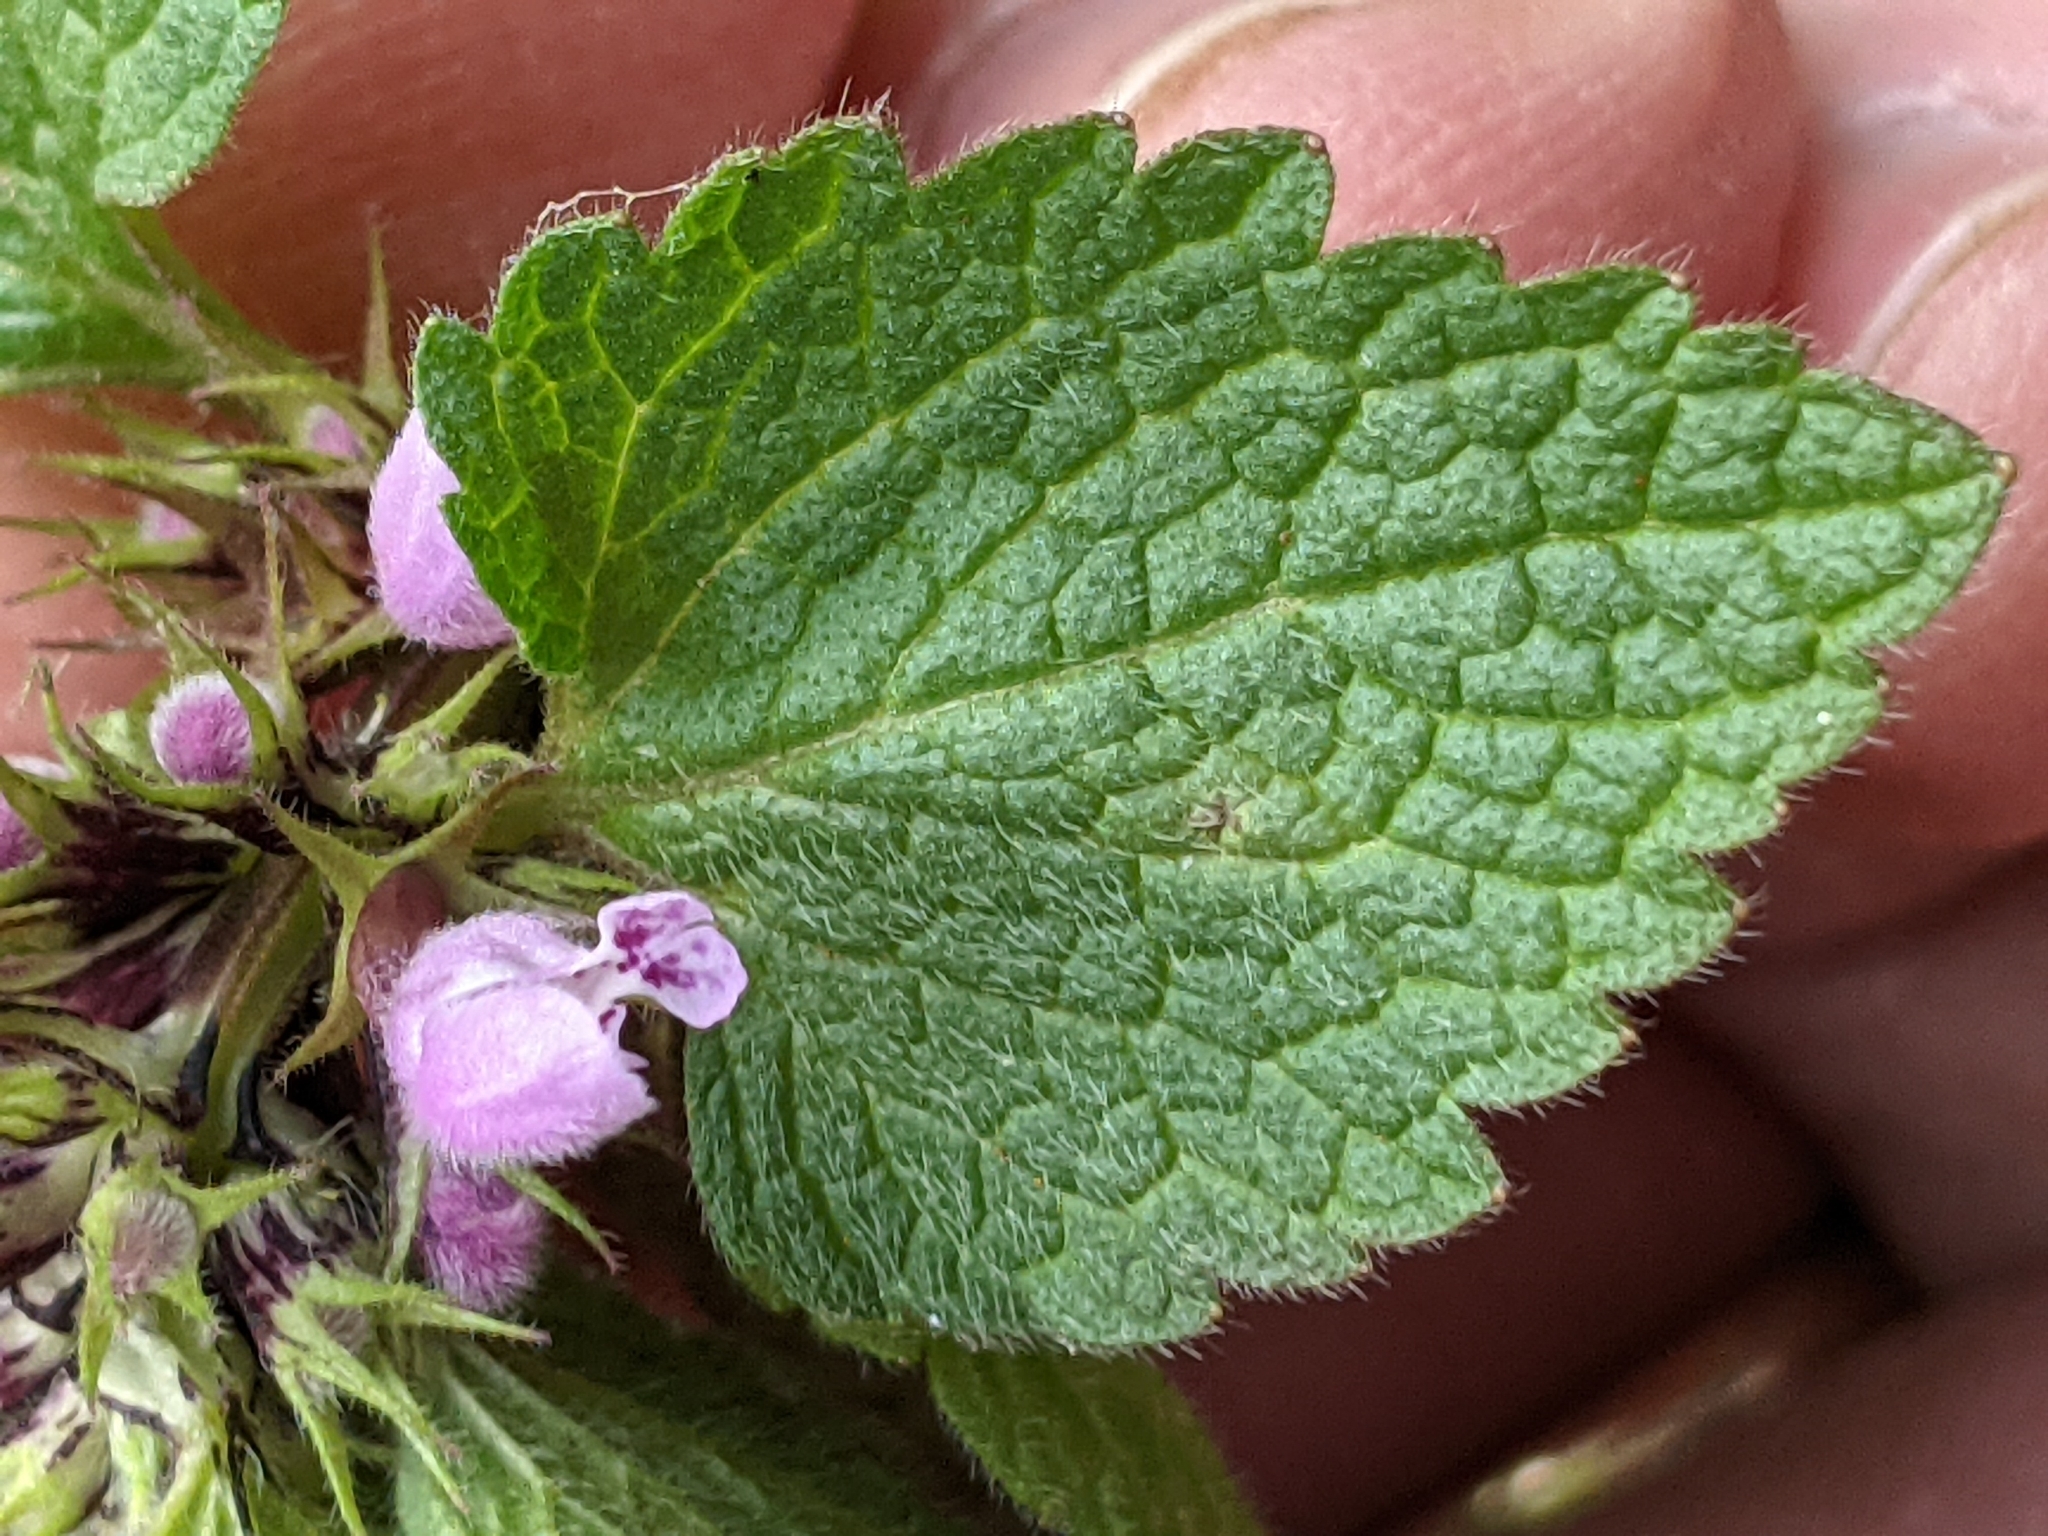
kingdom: Plantae
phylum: Tracheophyta
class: Magnoliopsida
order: Lamiales
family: Lamiaceae
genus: Lamium
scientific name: Lamium purpureum
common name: Red dead-nettle
